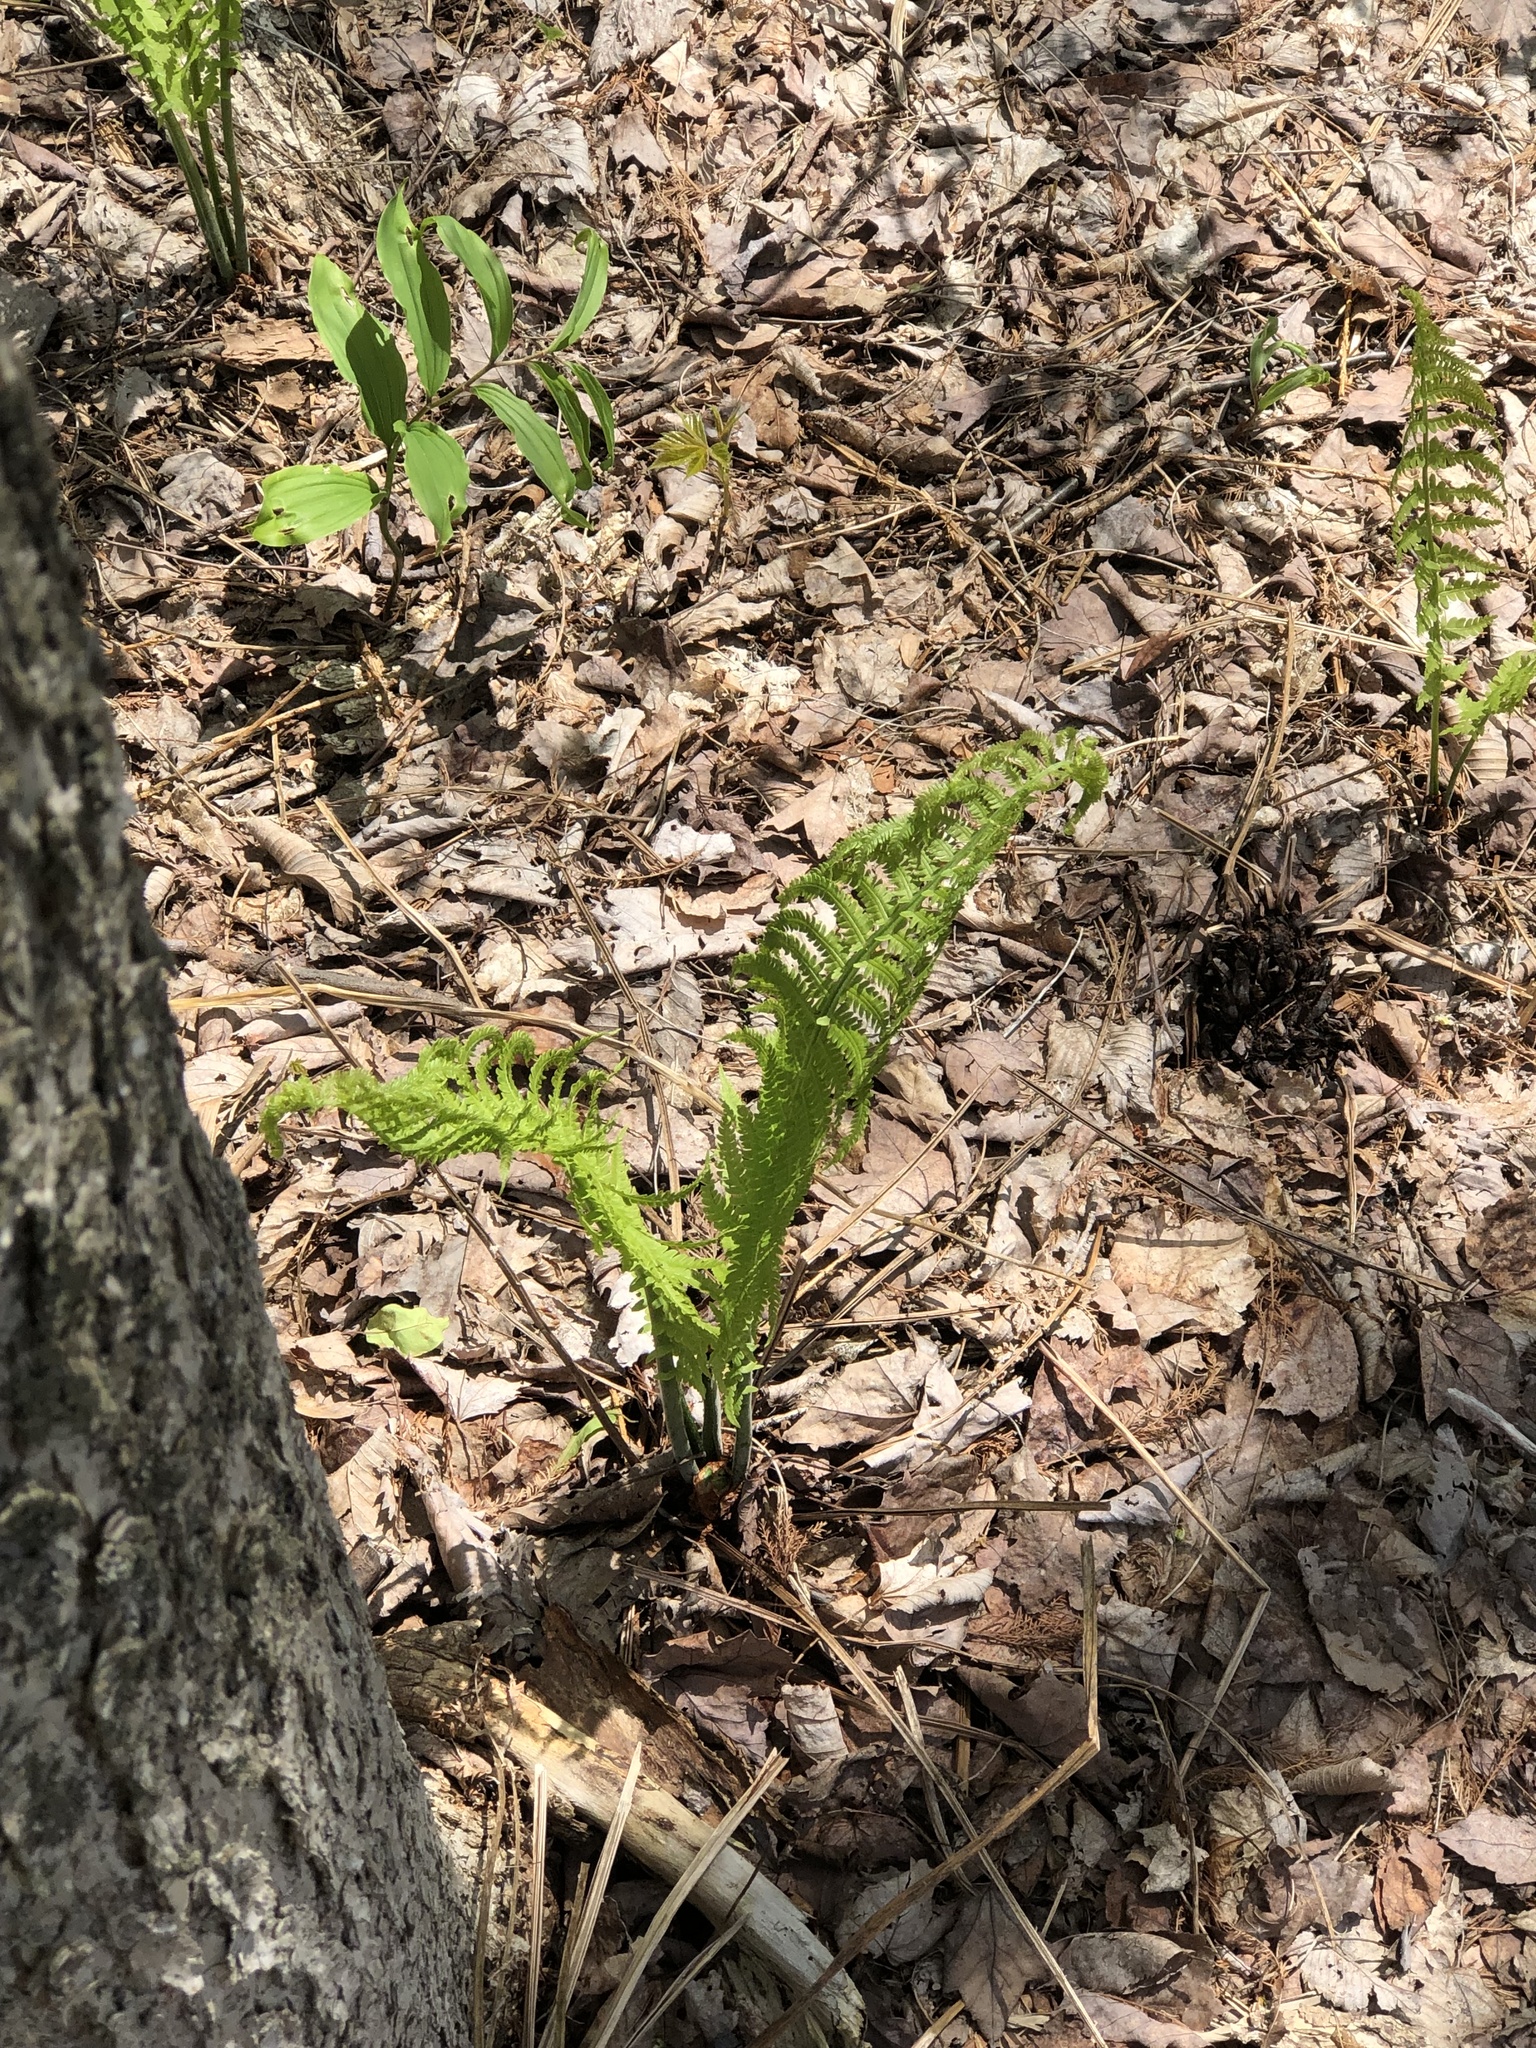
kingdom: Plantae
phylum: Tracheophyta
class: Polypodiopsida
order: Polypodiales
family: Onocleaceae
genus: Matteuccia
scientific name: Matteuccia struthiopteris
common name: Ostrich fern
